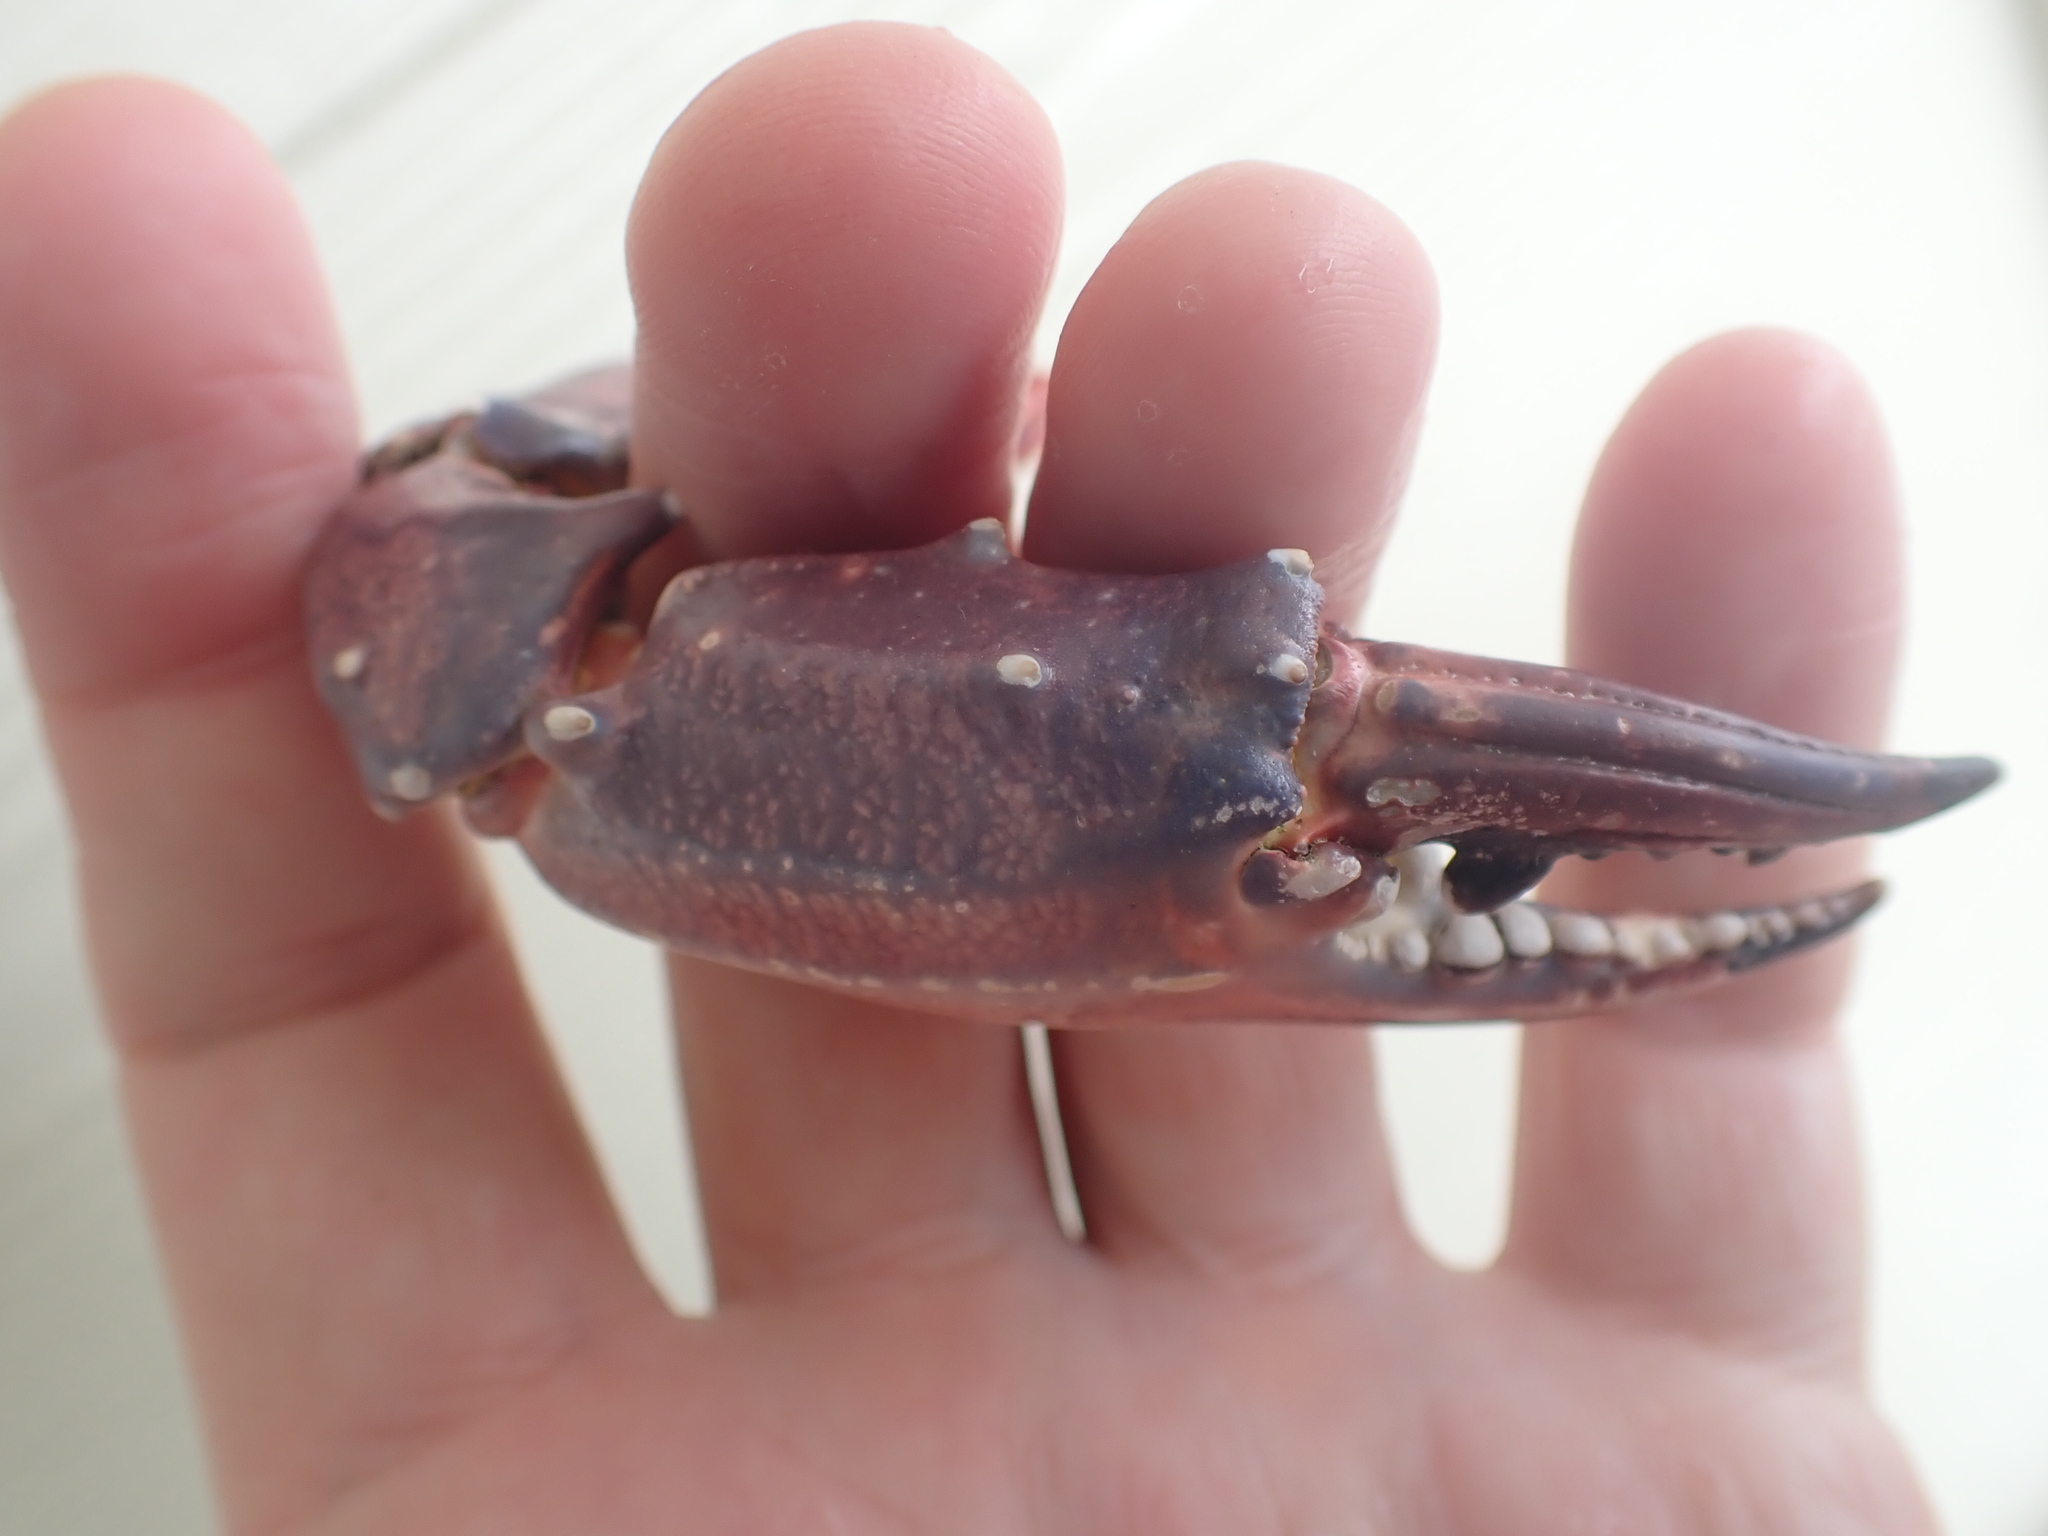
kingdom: Animalia
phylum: Arthropoda
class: Malacostraca
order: Decapoda
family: Portunidae
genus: Charybdis
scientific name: Charybdis japonica
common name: Asian paddle crab
